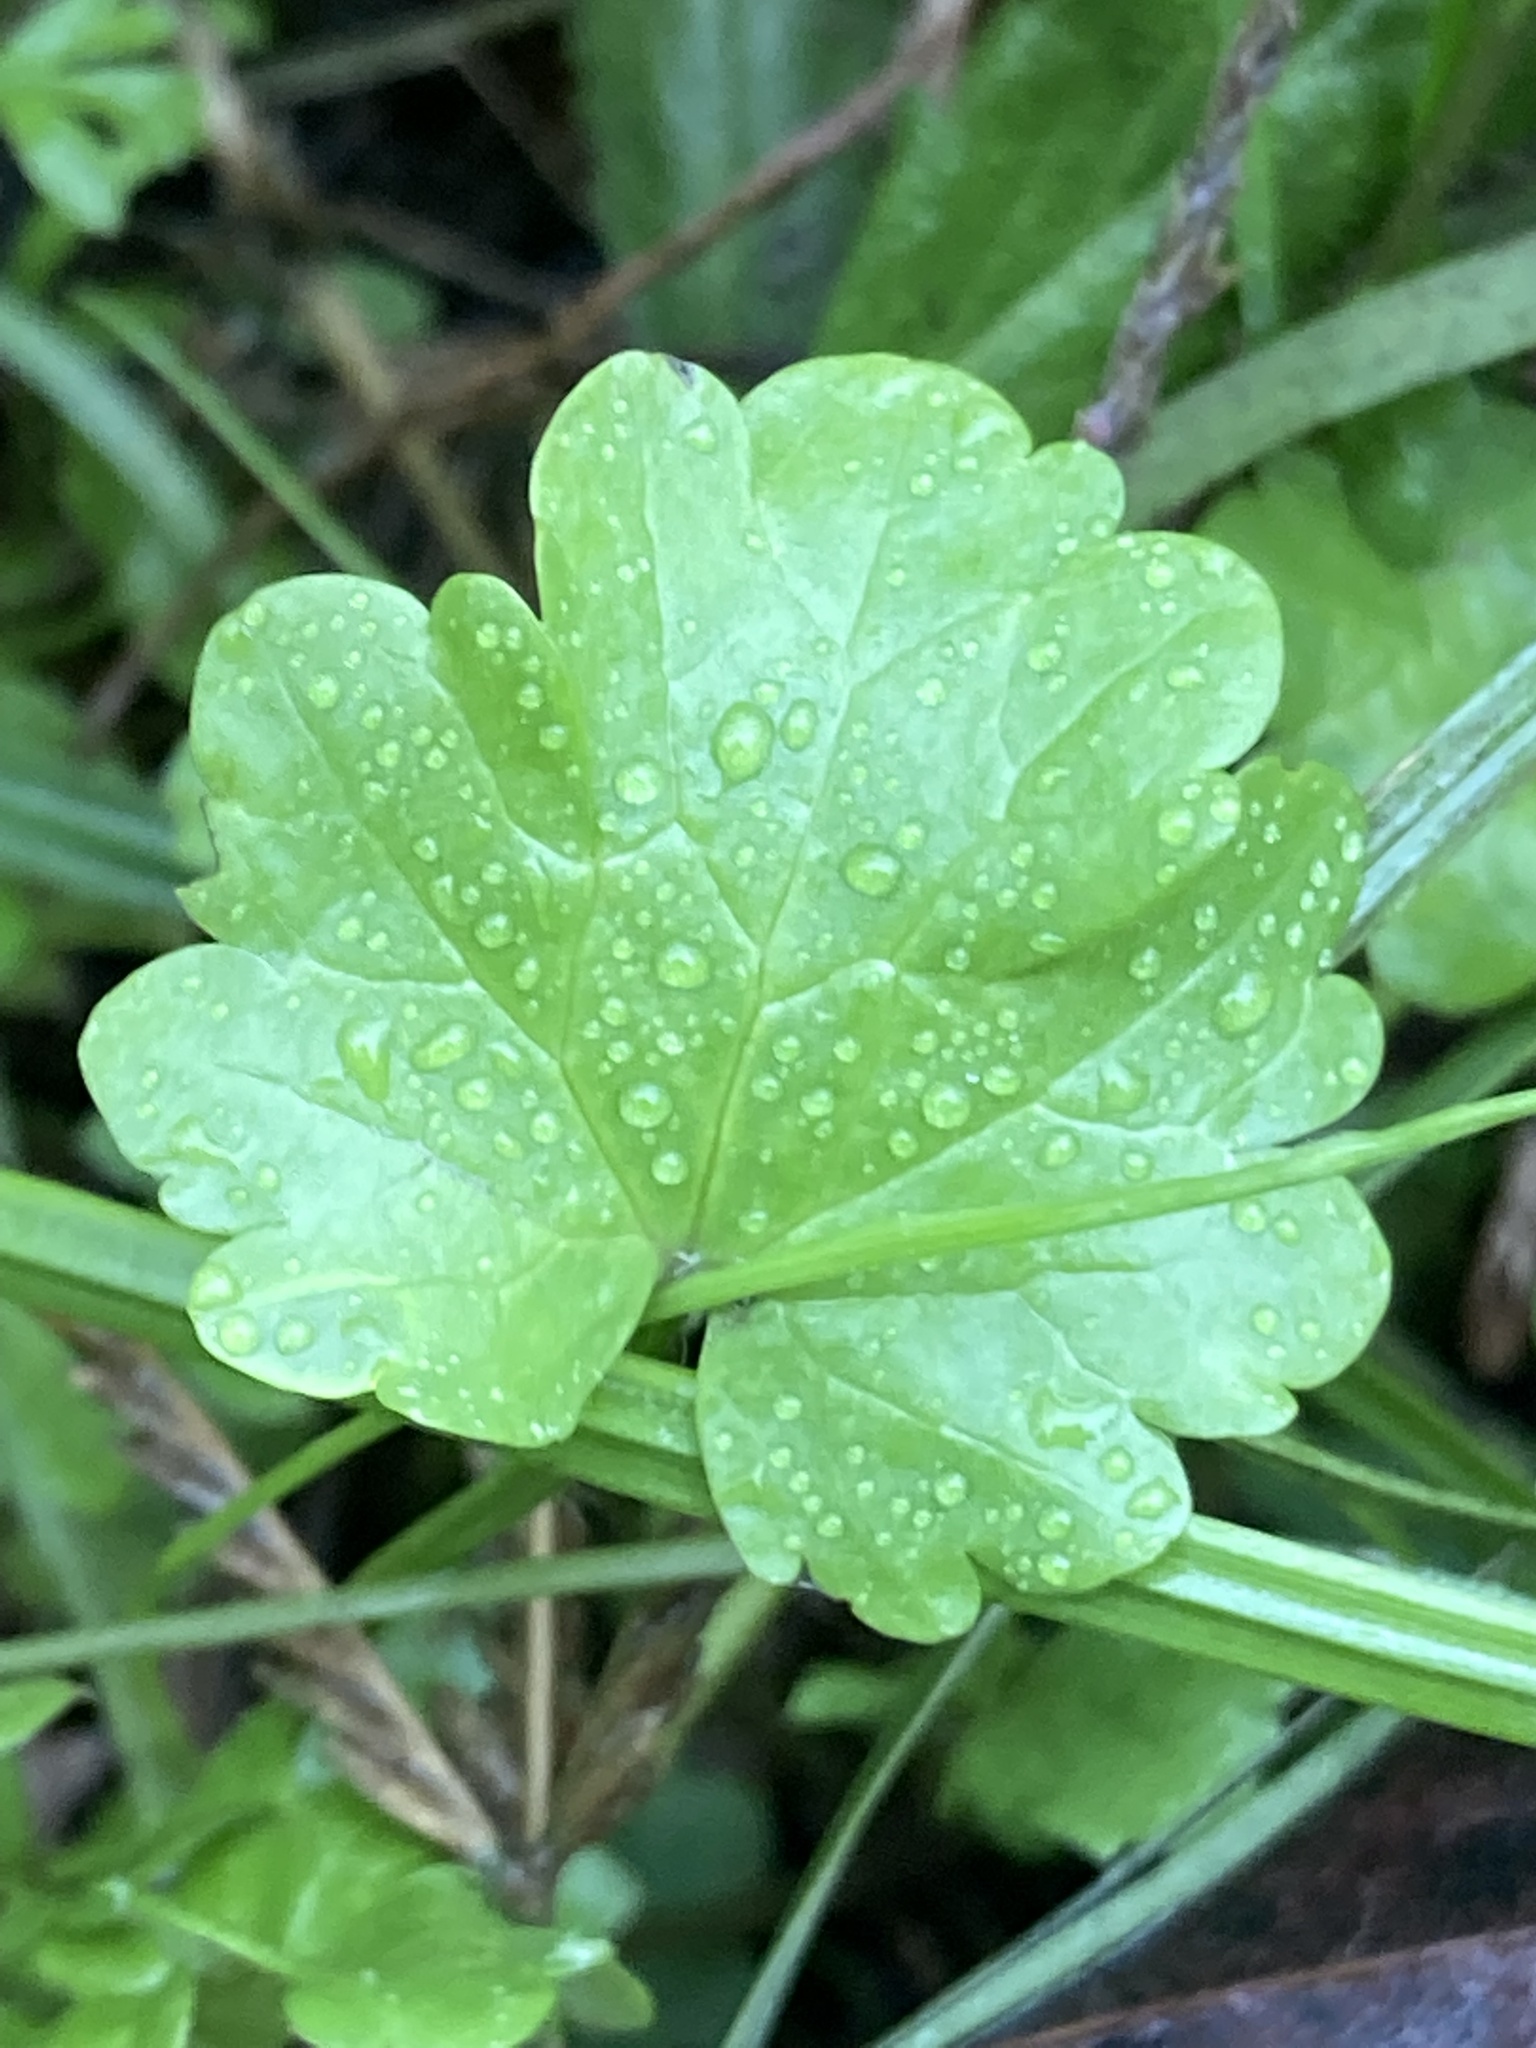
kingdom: Plantae
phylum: Tracheophyta
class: Magnoliopsida
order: Lamiales
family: Lamiaceae
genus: Glechoma
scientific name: Glechoma hederacea
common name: Ground ivy
